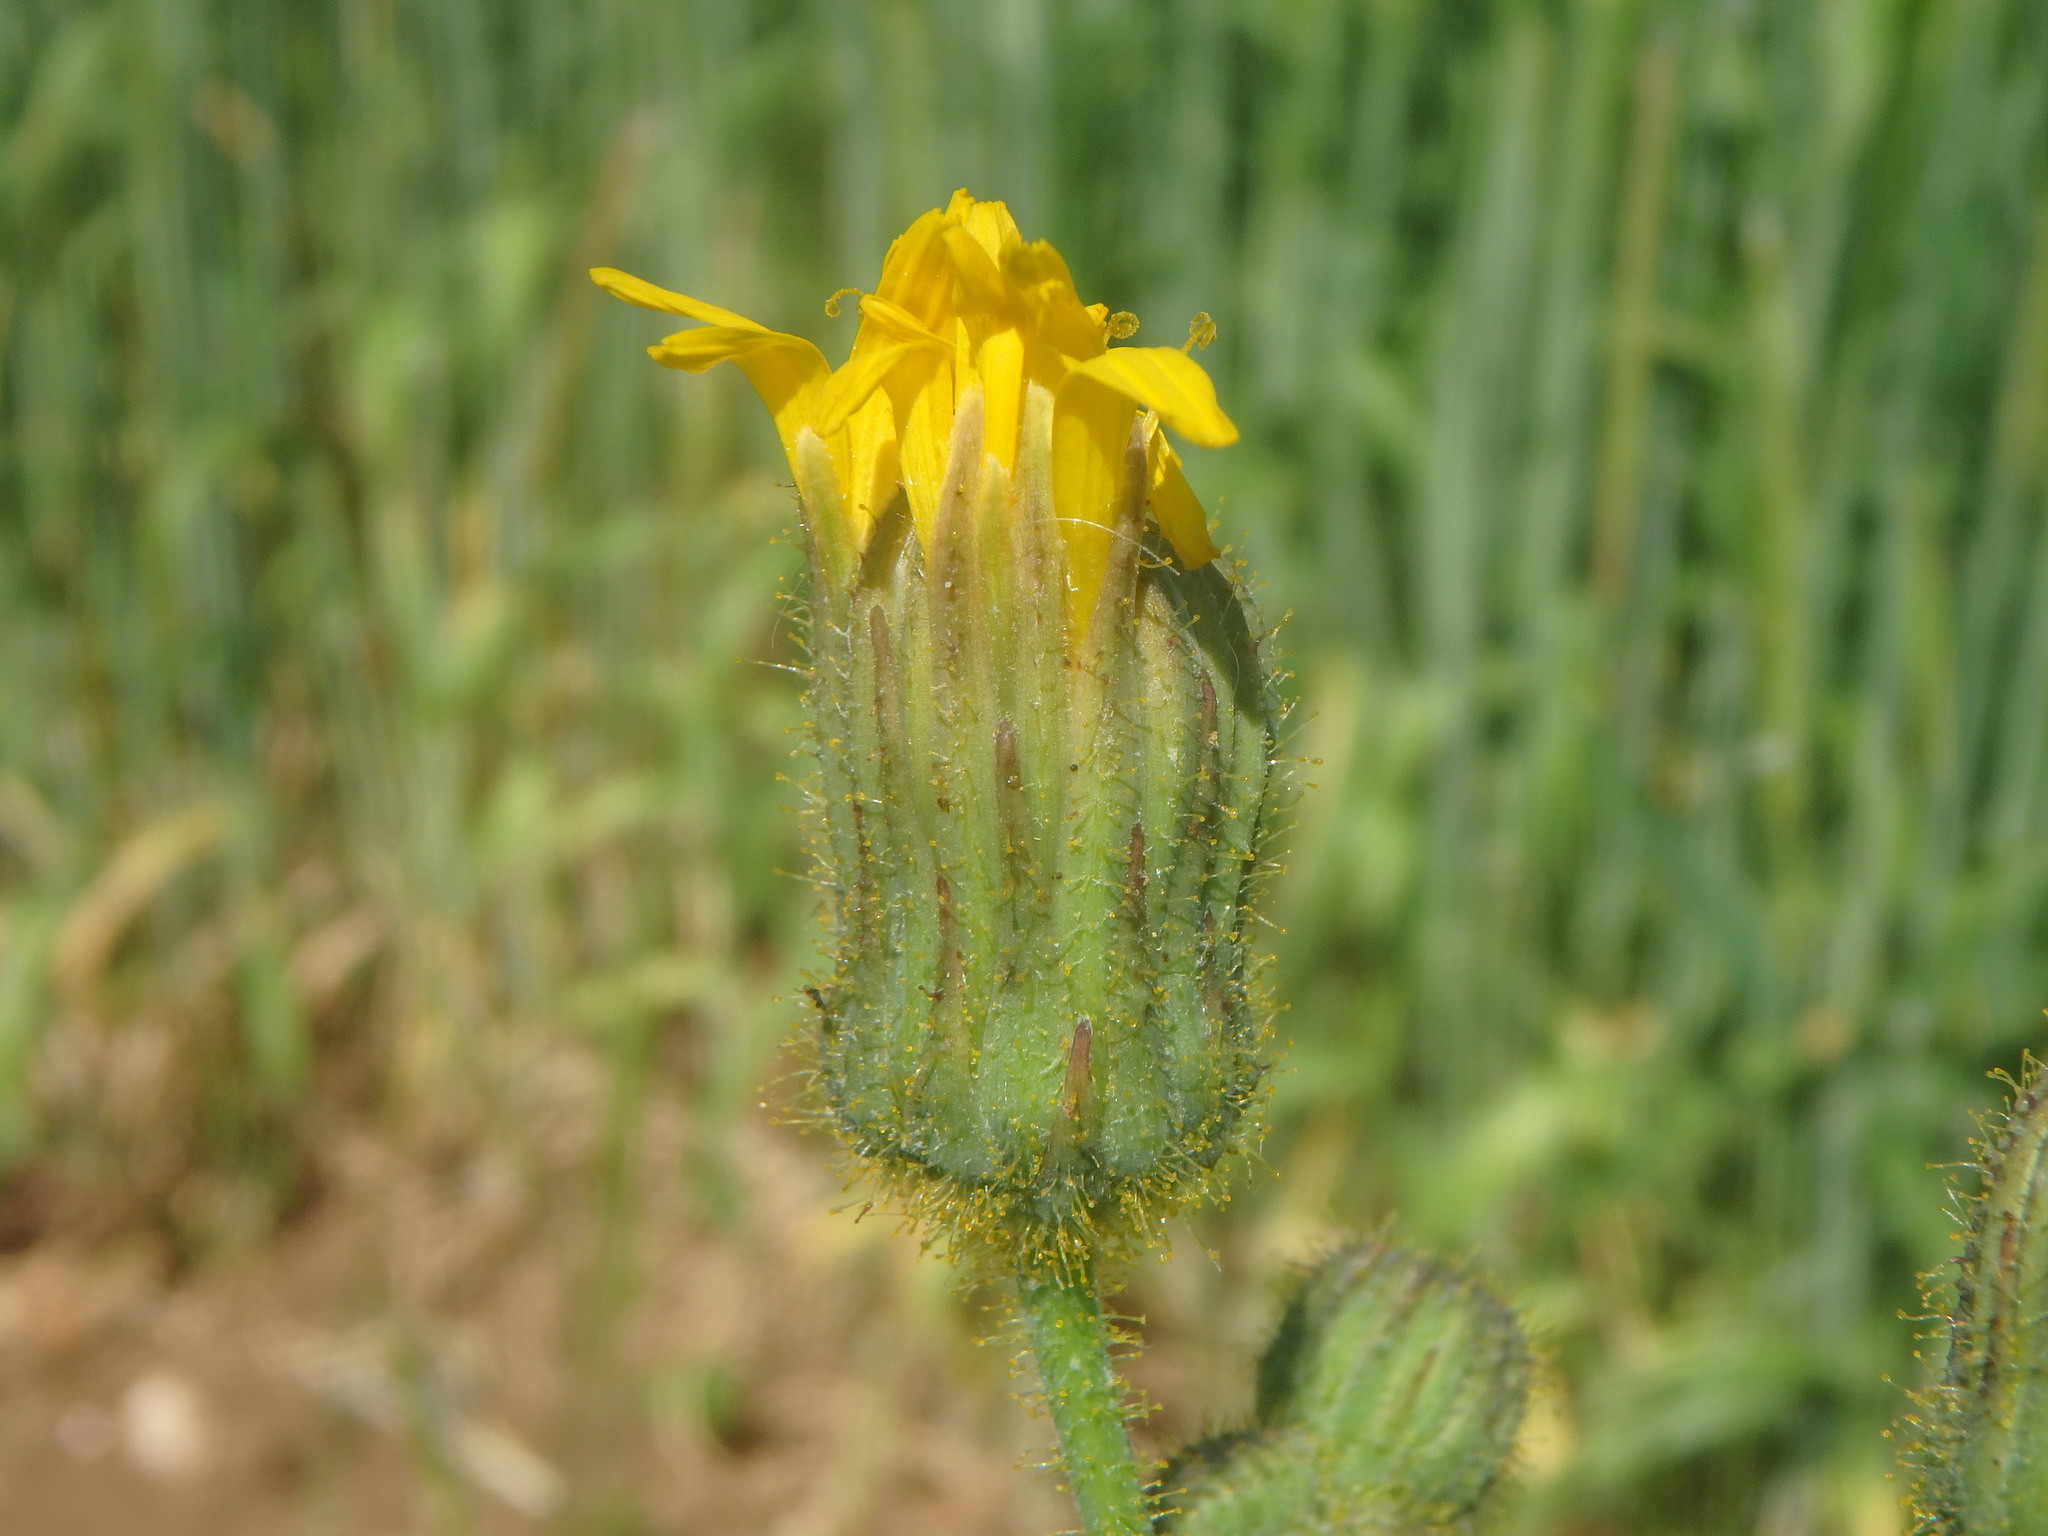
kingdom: Plantae
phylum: Tracheophyta
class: Magnoliopsida
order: Asterales
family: Asteraceae
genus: Sonchus
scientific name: Sonchus arvensis
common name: Perennial sow-thistle
